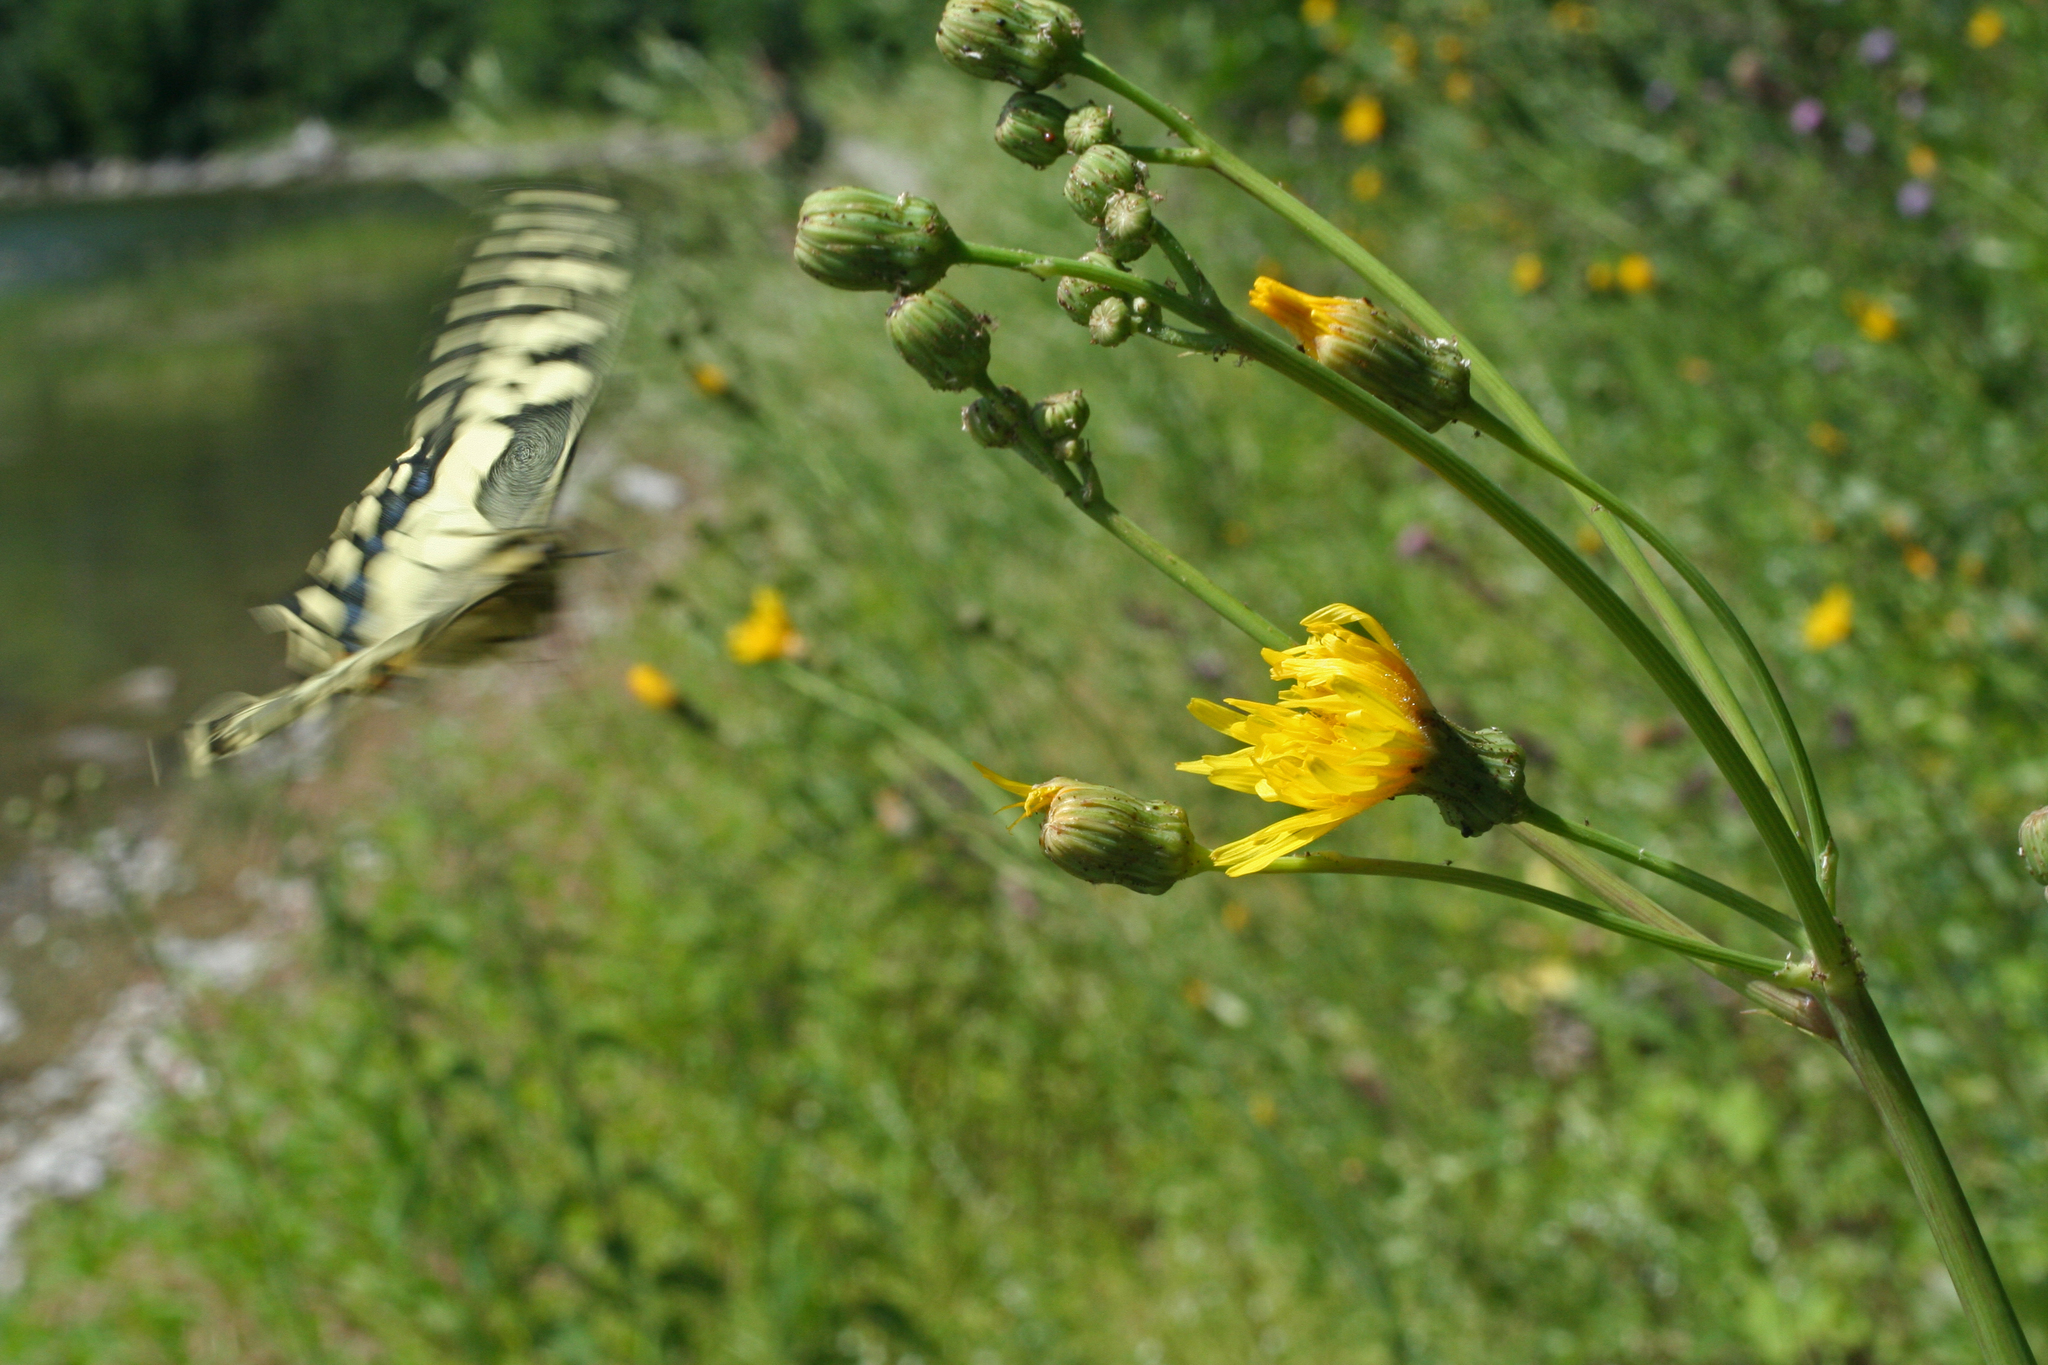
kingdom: Plantae
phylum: Tracheophyta
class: Magnoliopsida
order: Asterales
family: Asteraceae
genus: Sonchus
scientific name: Sonchus arvensis
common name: Perennial sow-thistle
